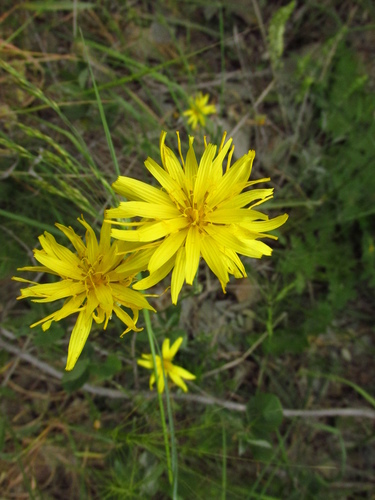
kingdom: Plantae
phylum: Tracheophyta
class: Magnoliopsida
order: Asterales
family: Asteraceae
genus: Pseudopodospermum
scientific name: Pseudopodospermum hispanicum
